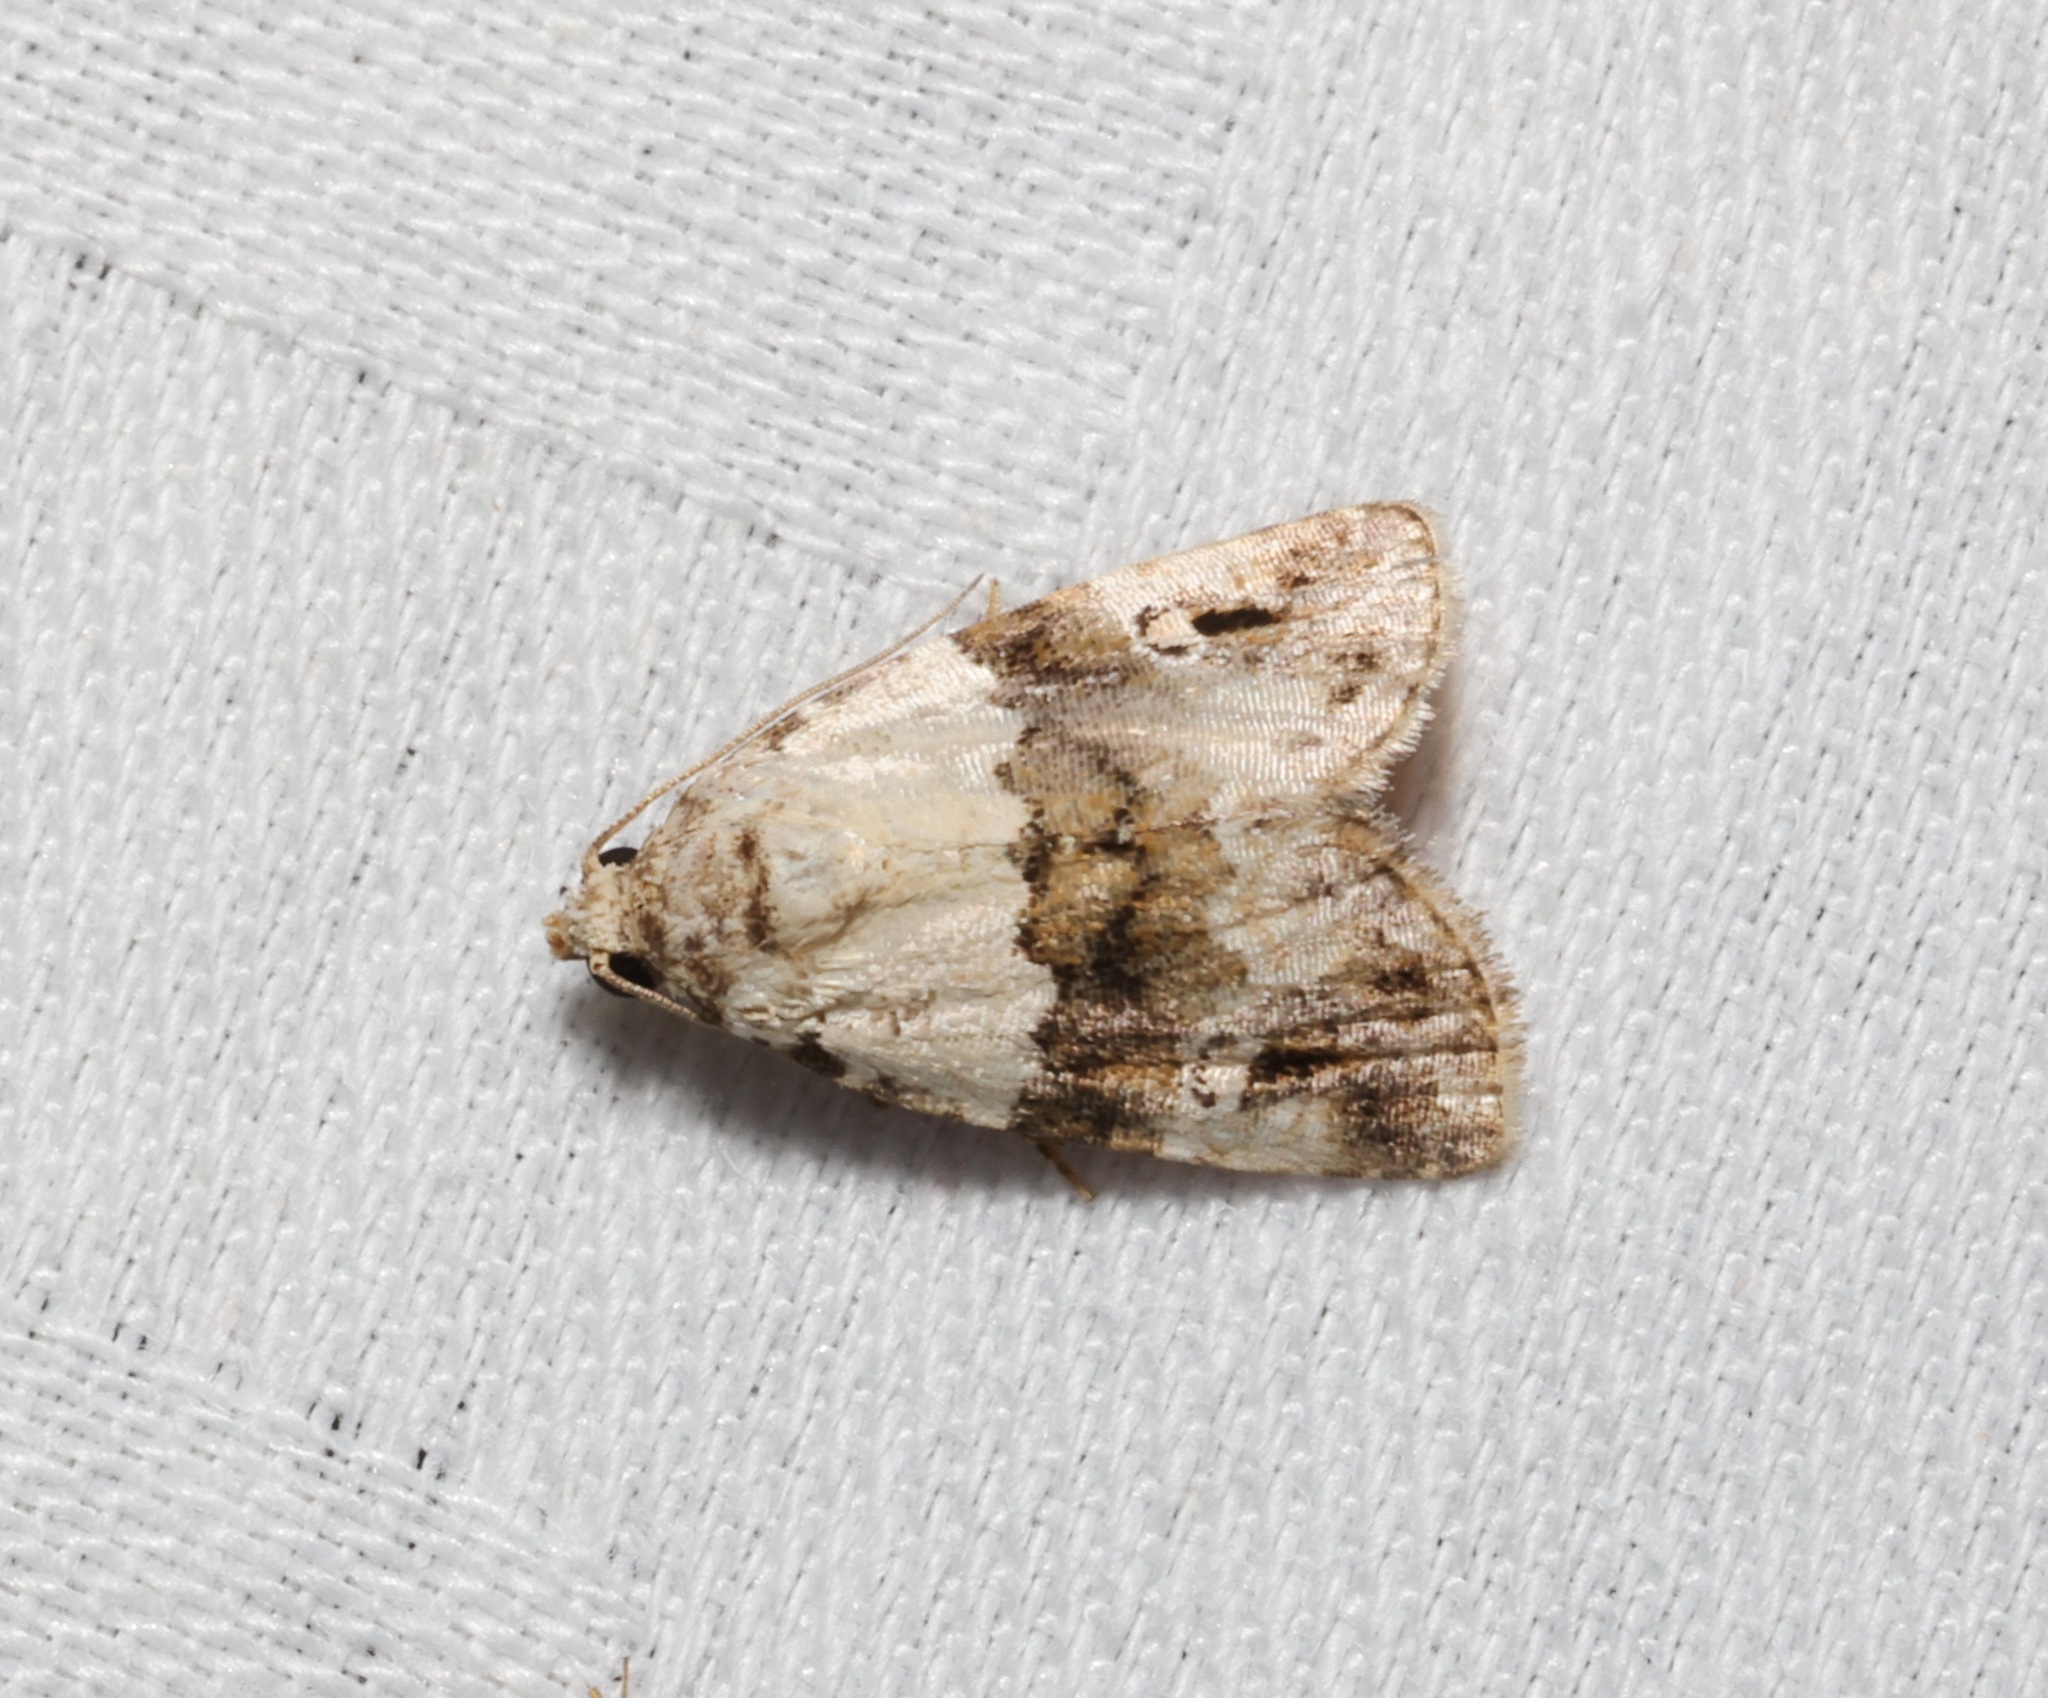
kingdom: Animalia
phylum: Arthropoda
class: Insecta
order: Lepidoptera
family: Noctuidae
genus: Maliattha
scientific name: Maliattha signifera
